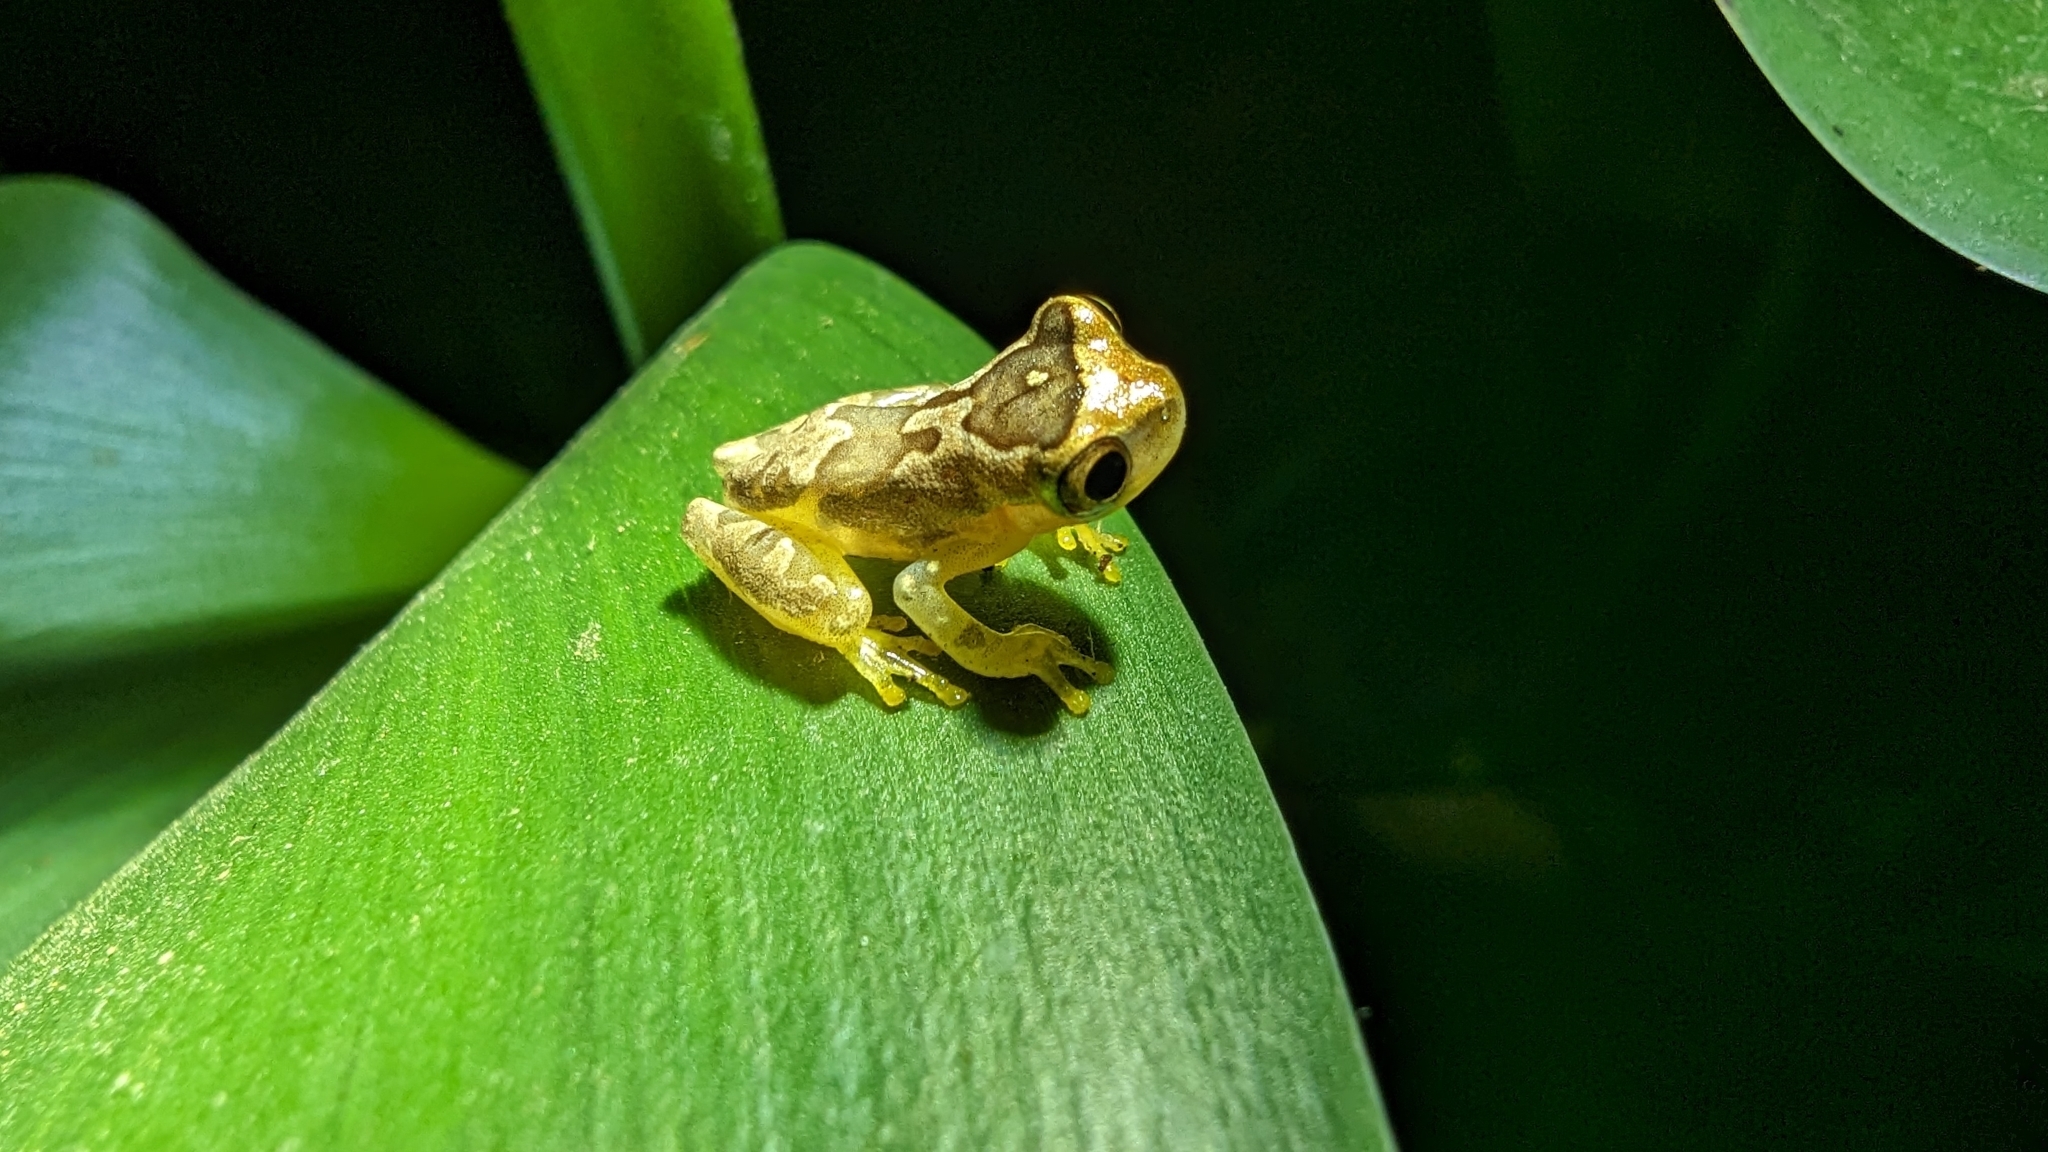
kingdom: Animalia
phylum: Chordata
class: Amphibia
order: Anura
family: Hylidae
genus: Dendropsophus
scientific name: Dendropsophus ebraccatus
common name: Hourglass treefrog
